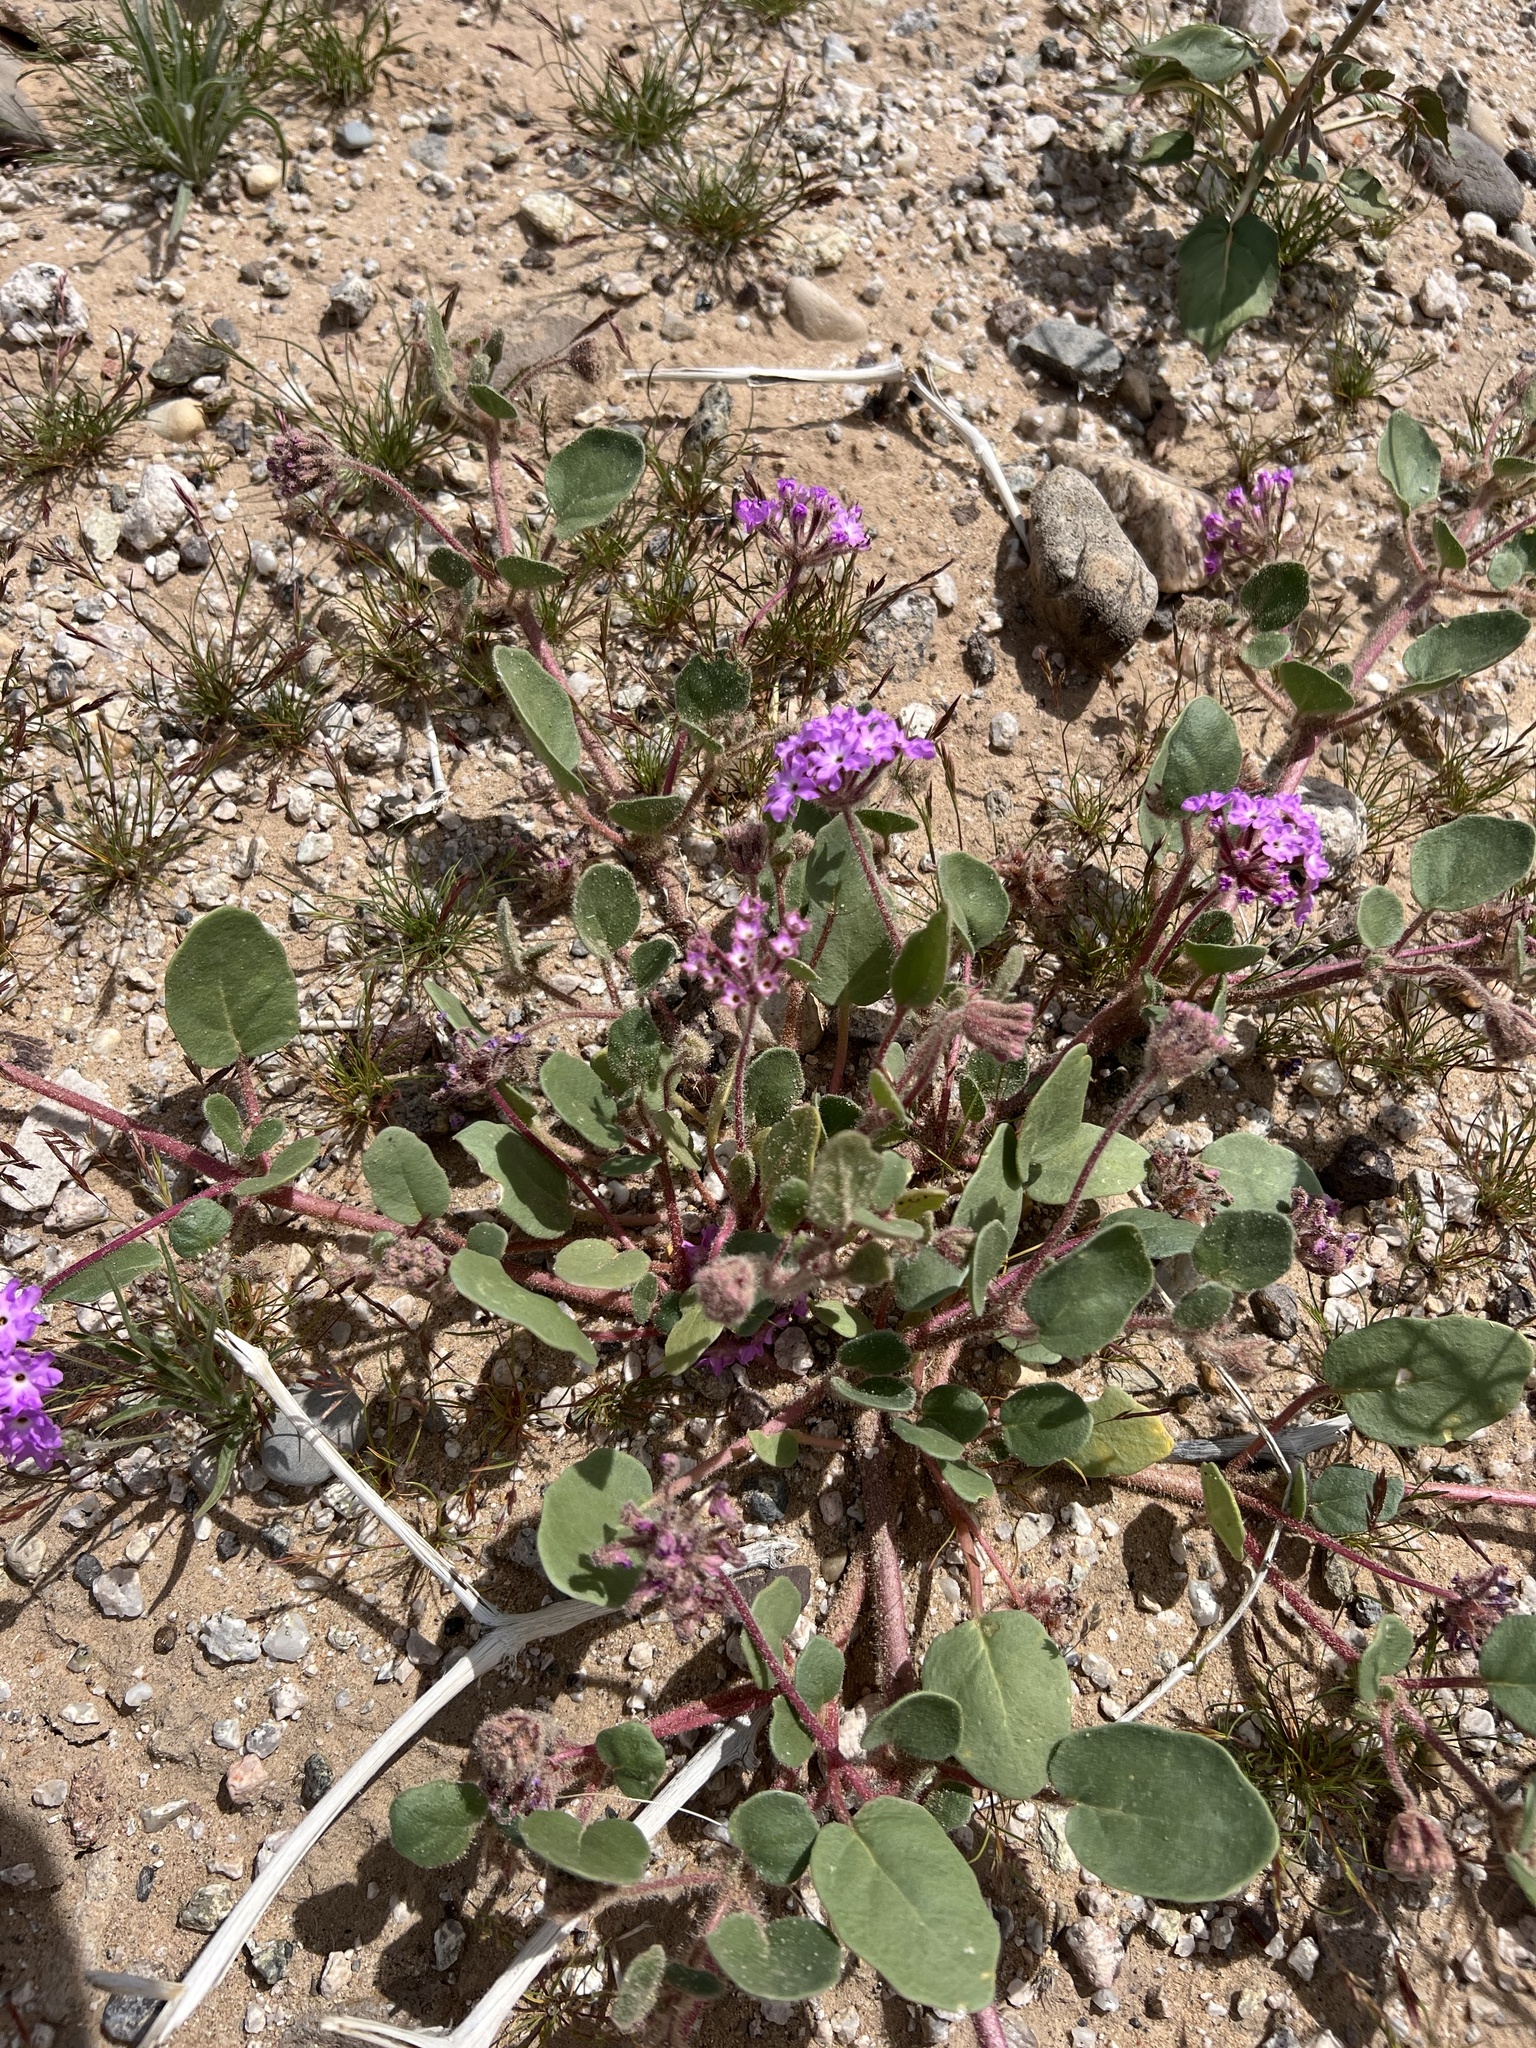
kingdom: Plantae
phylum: Tracheophyta
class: Magnoliopsida
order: Caryophyllales
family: Nyctaginaceae
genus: Abronia
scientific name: Abronia villosa
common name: Desert sand-verbena
